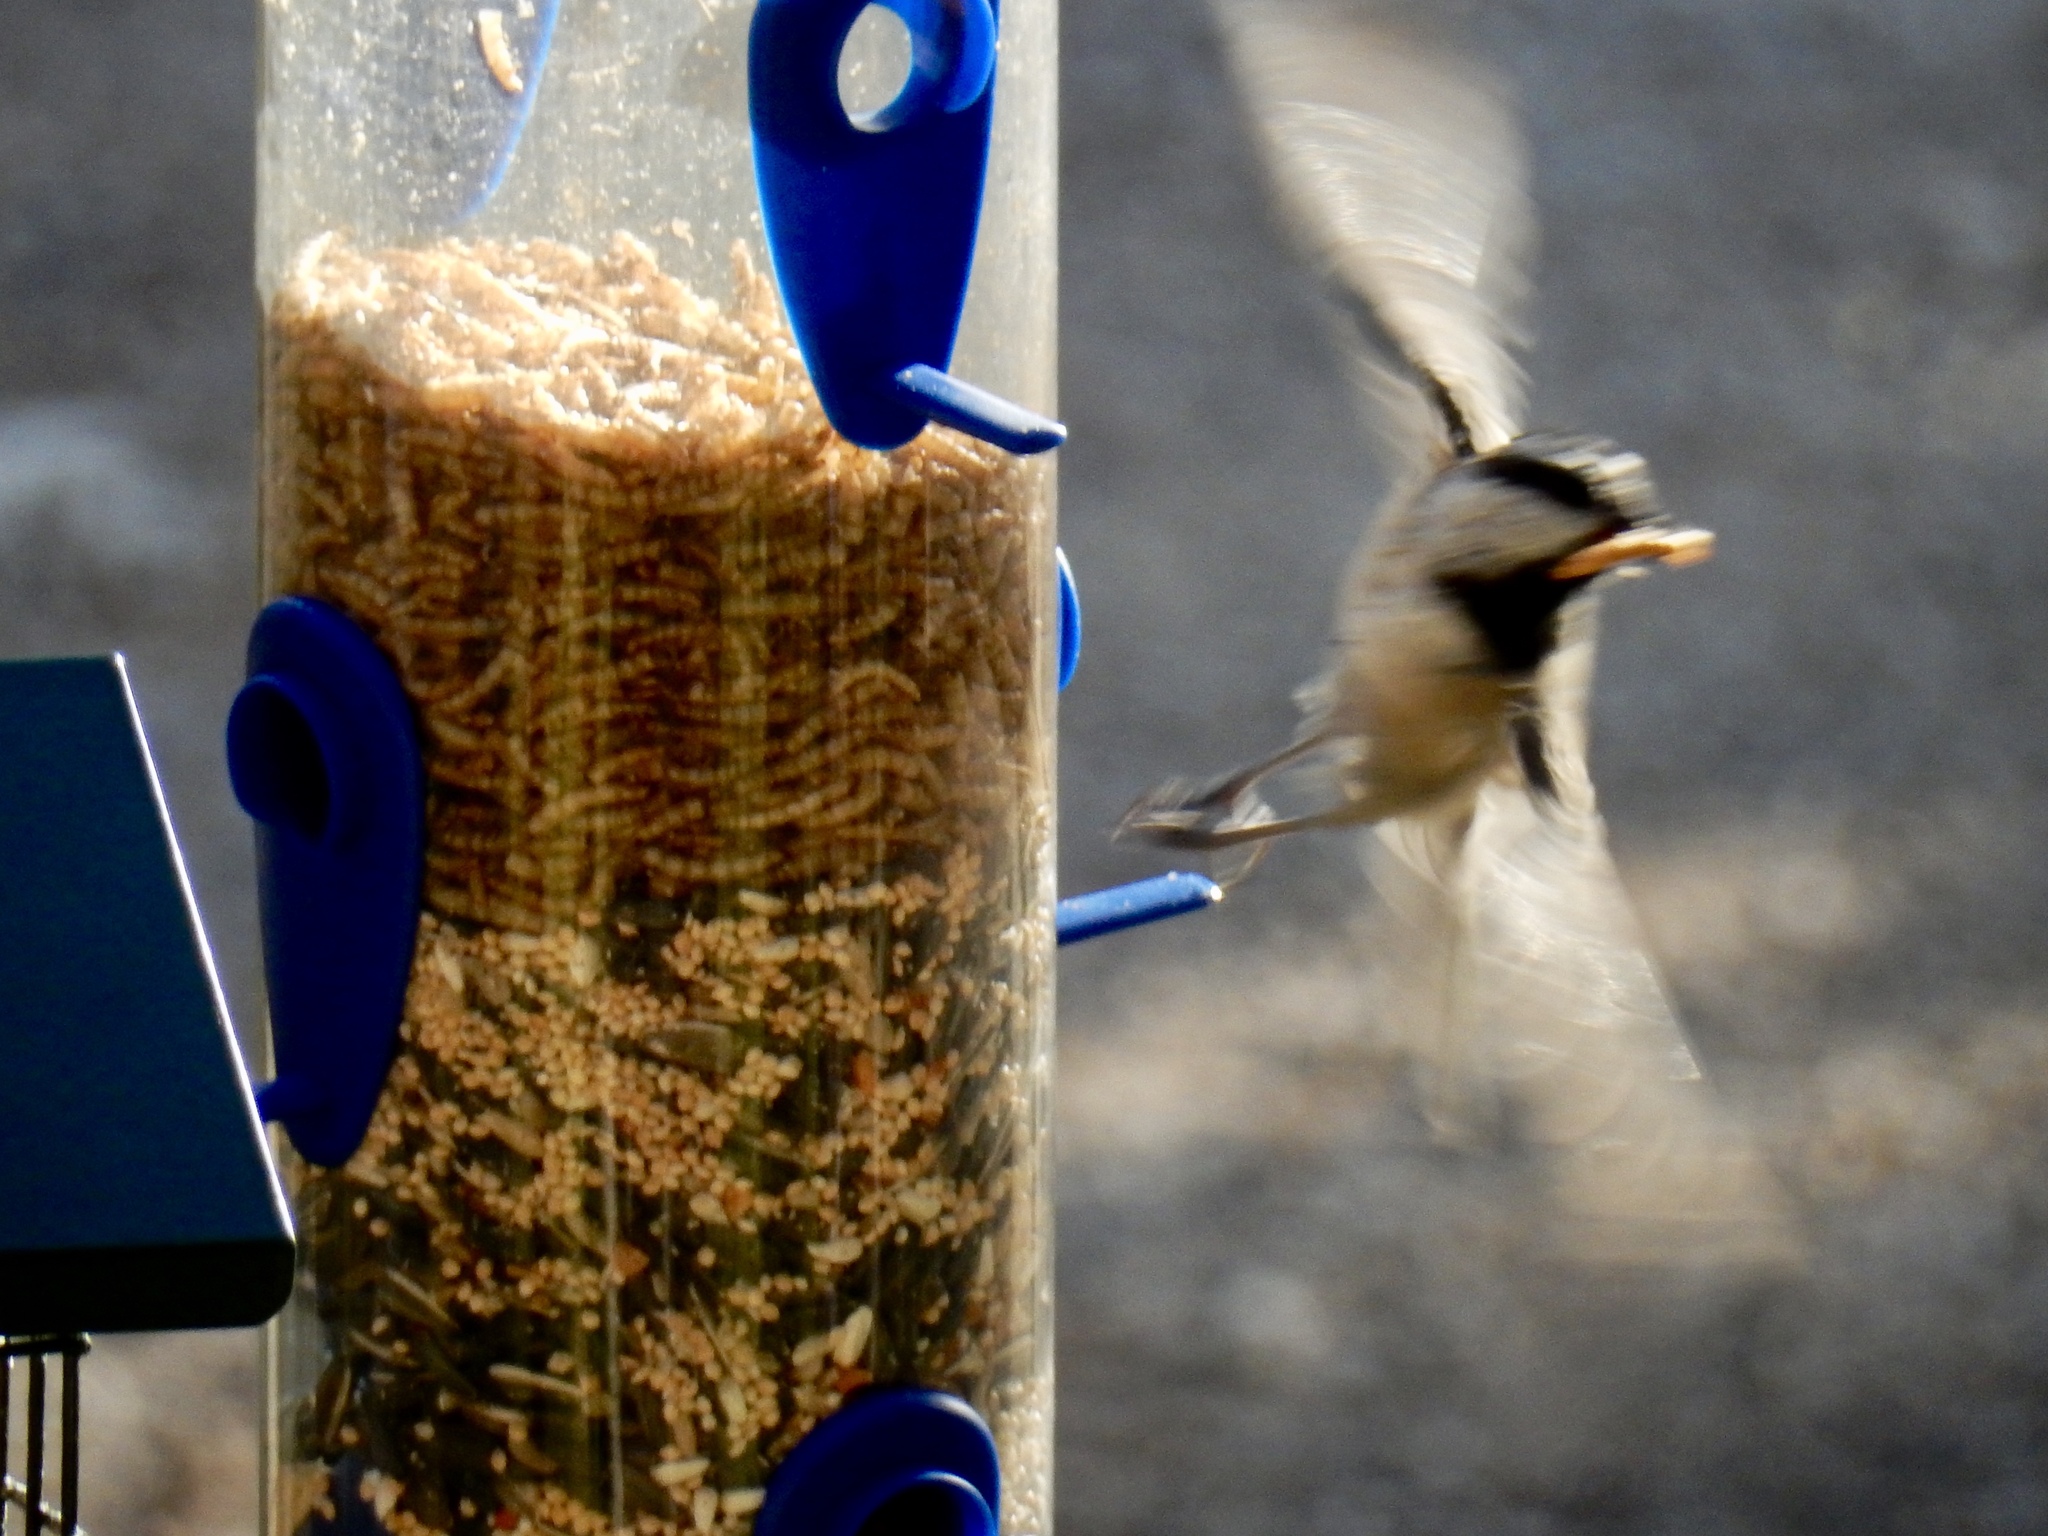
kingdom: Animalia
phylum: Chordata
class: Aves
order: Passeriformes
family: Paridae
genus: Poecile
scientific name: Poecile gambeli
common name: Mountain chickadee
